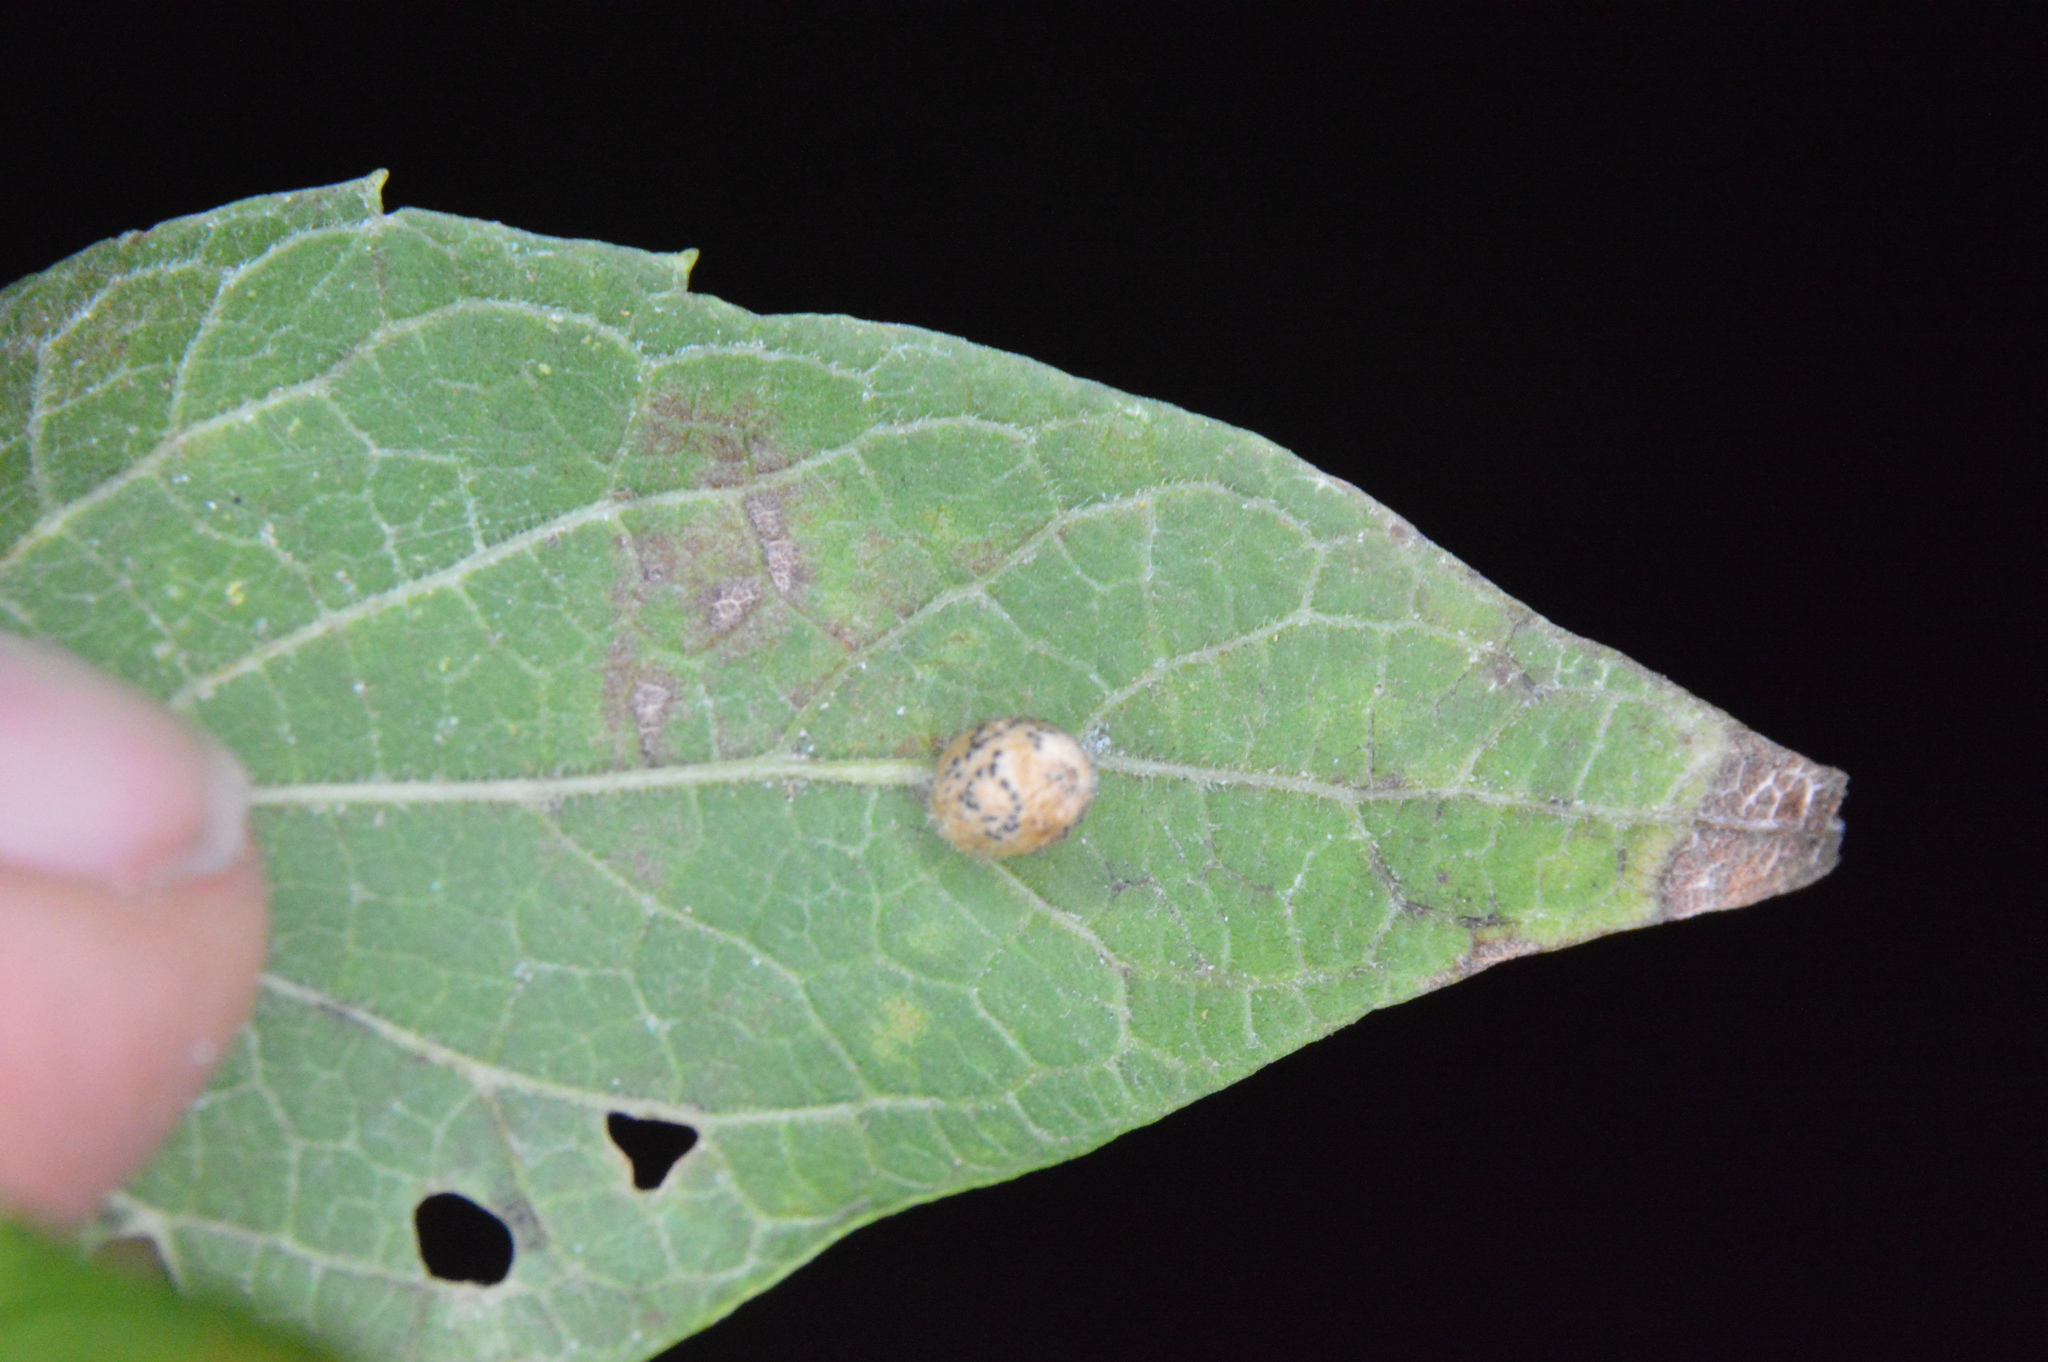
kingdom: Animalia
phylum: Arthropoda
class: Insecta
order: Diptera
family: Cecidomyiidae
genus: Celticecis
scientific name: Celticecis pubescens
